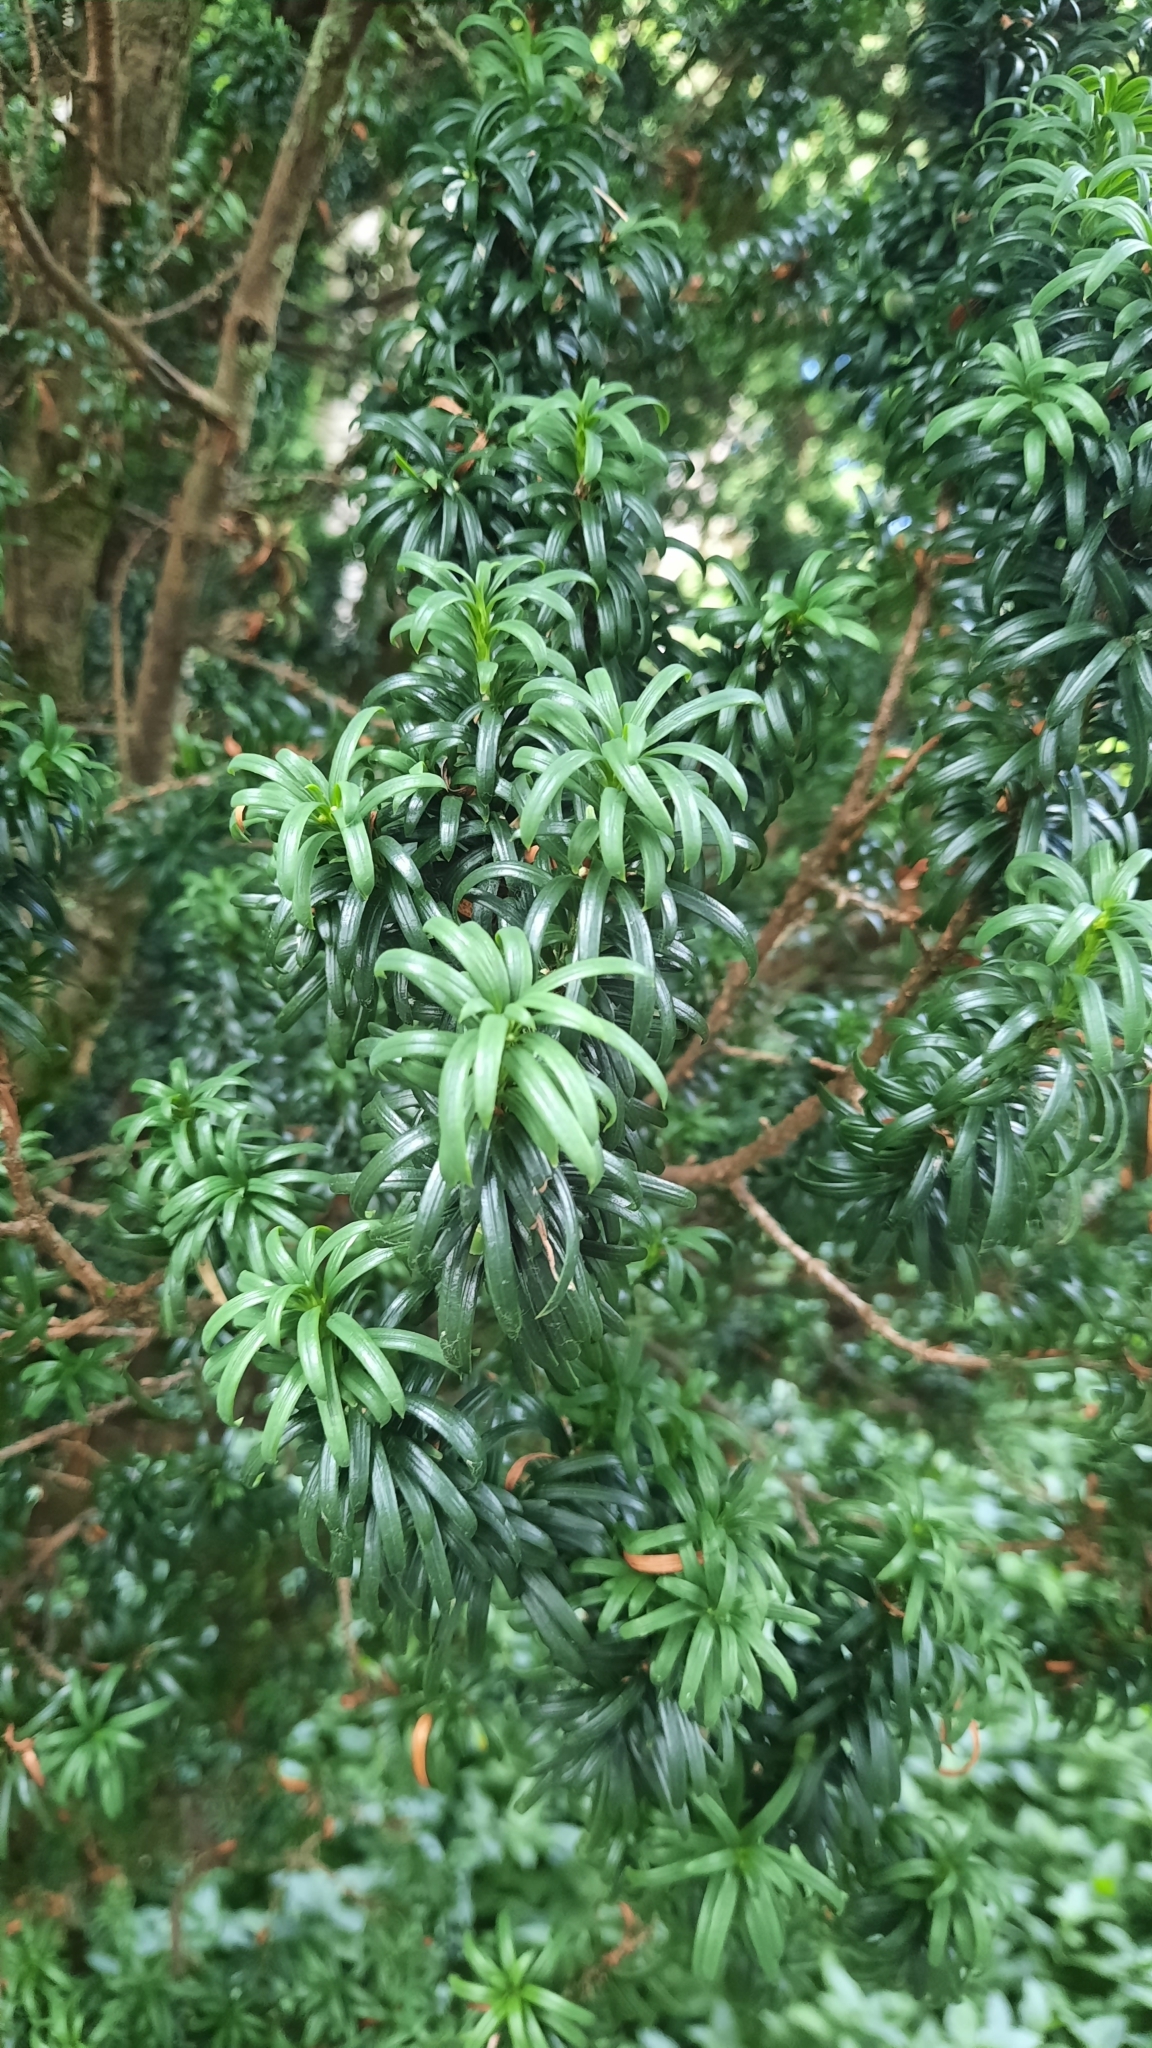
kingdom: Plantae
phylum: Tracheophyta
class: Pinopsida
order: Pinales
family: Taxaceae
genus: Taxus
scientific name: Taxus baccata
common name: Yew
